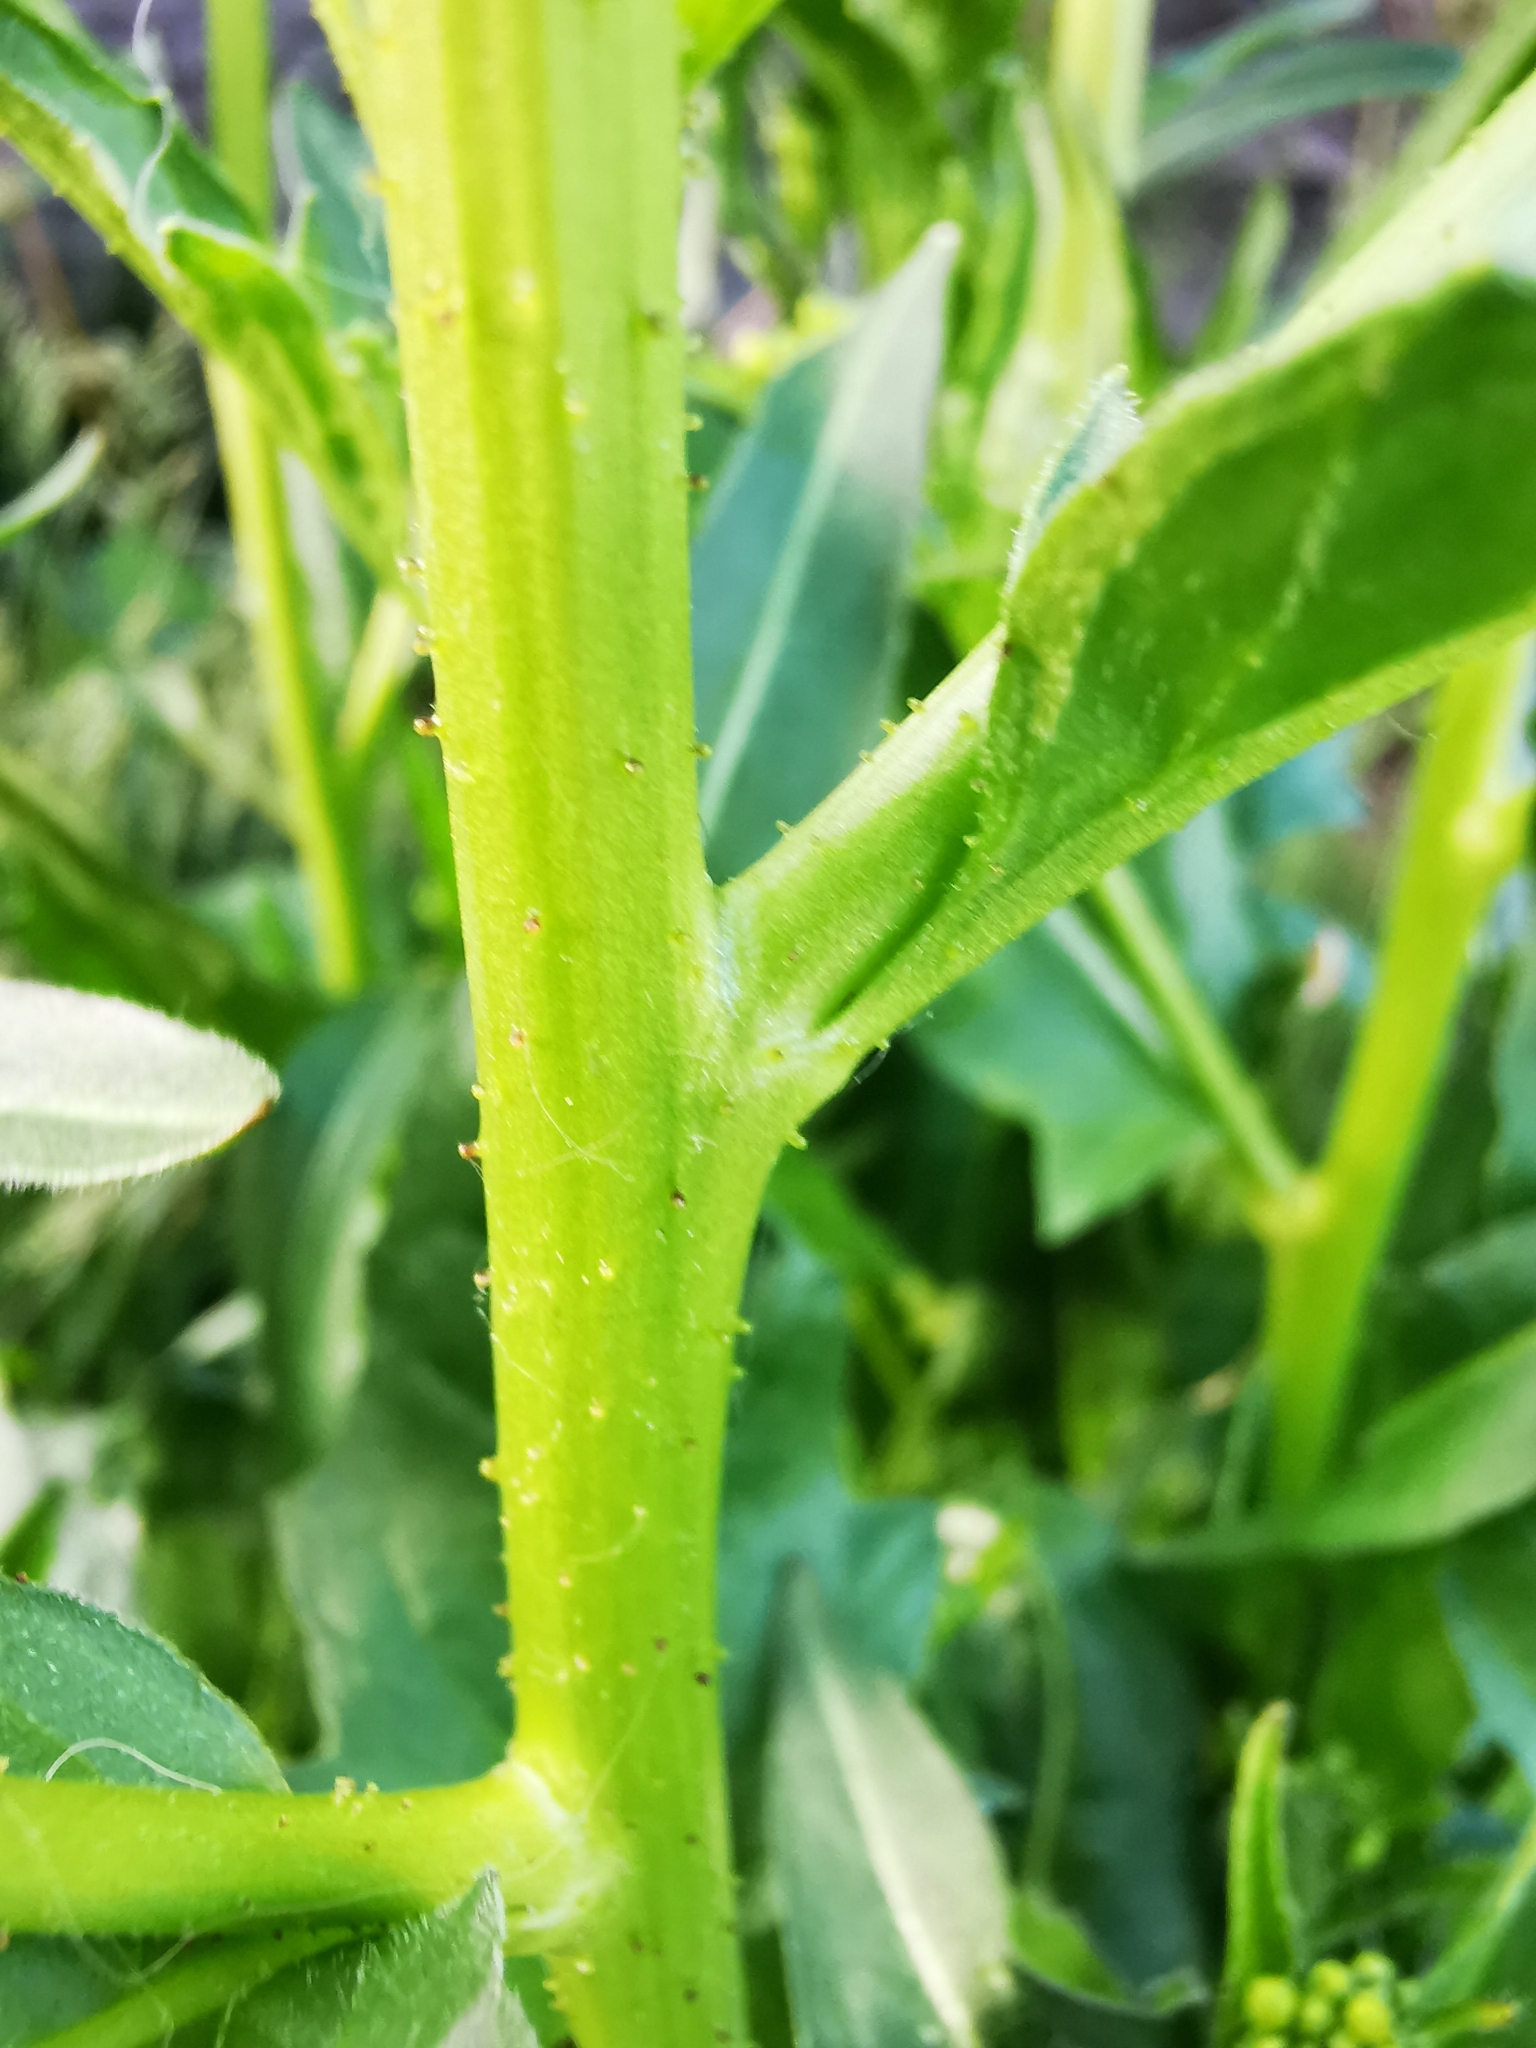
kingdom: Plantae
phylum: Tracheophyta
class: Magnoliopsida
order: Brassicales
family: Brassicaceae
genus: Bunias
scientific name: Bunias orientalis
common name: Warty-cabbage
